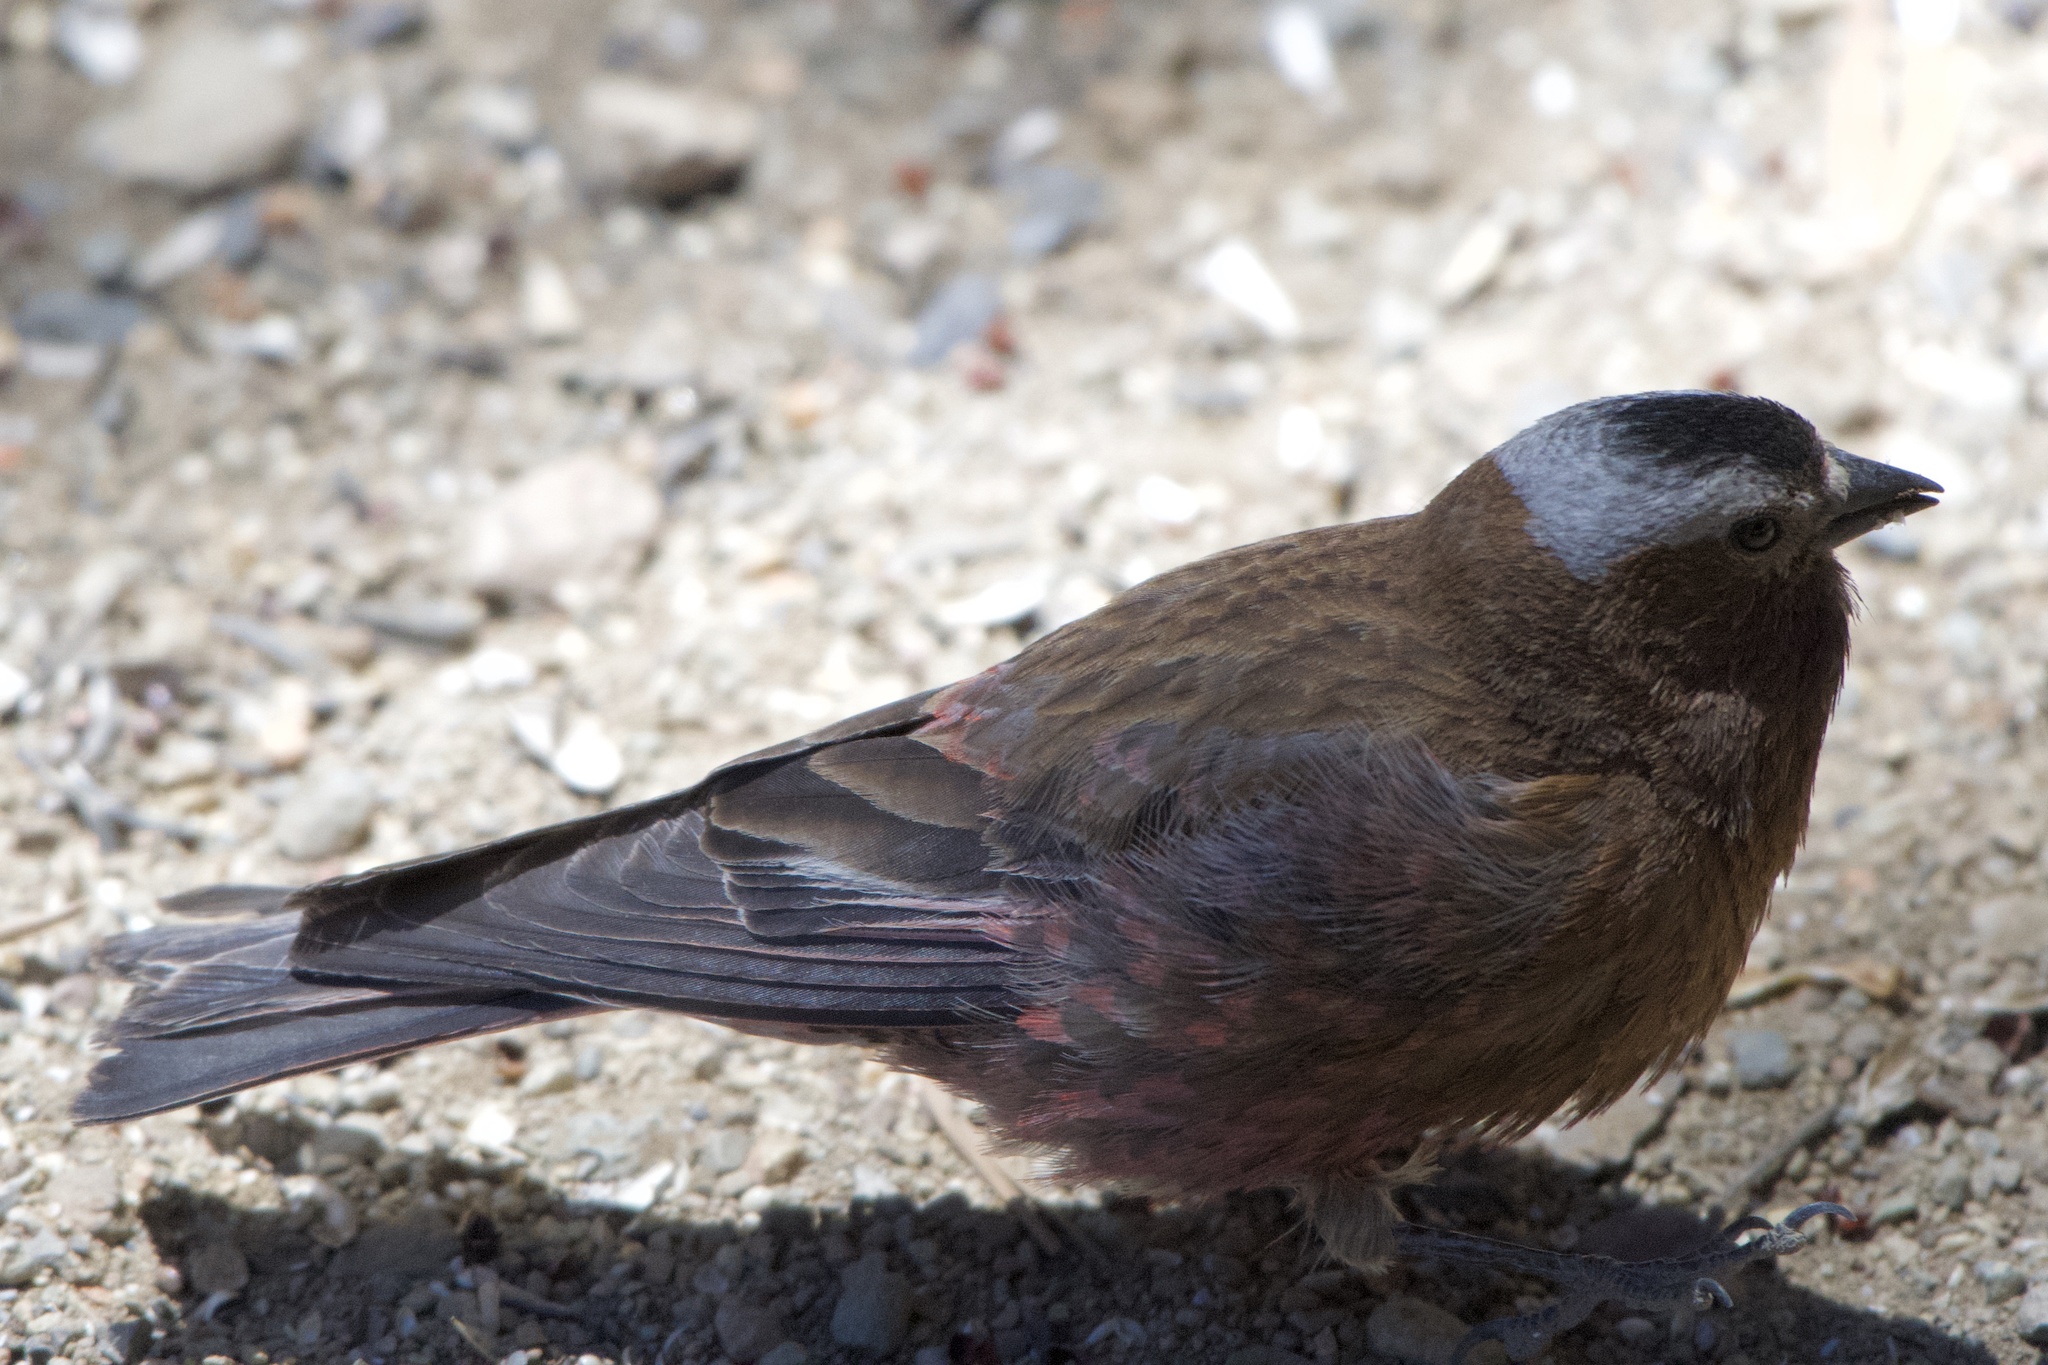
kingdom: Animalia
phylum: Chordata
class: Aves
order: Passeriformes
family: Fringillidae
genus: Leucosticte
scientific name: Leucosticte tephrocotis
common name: Gray-crowned rosy-finch
